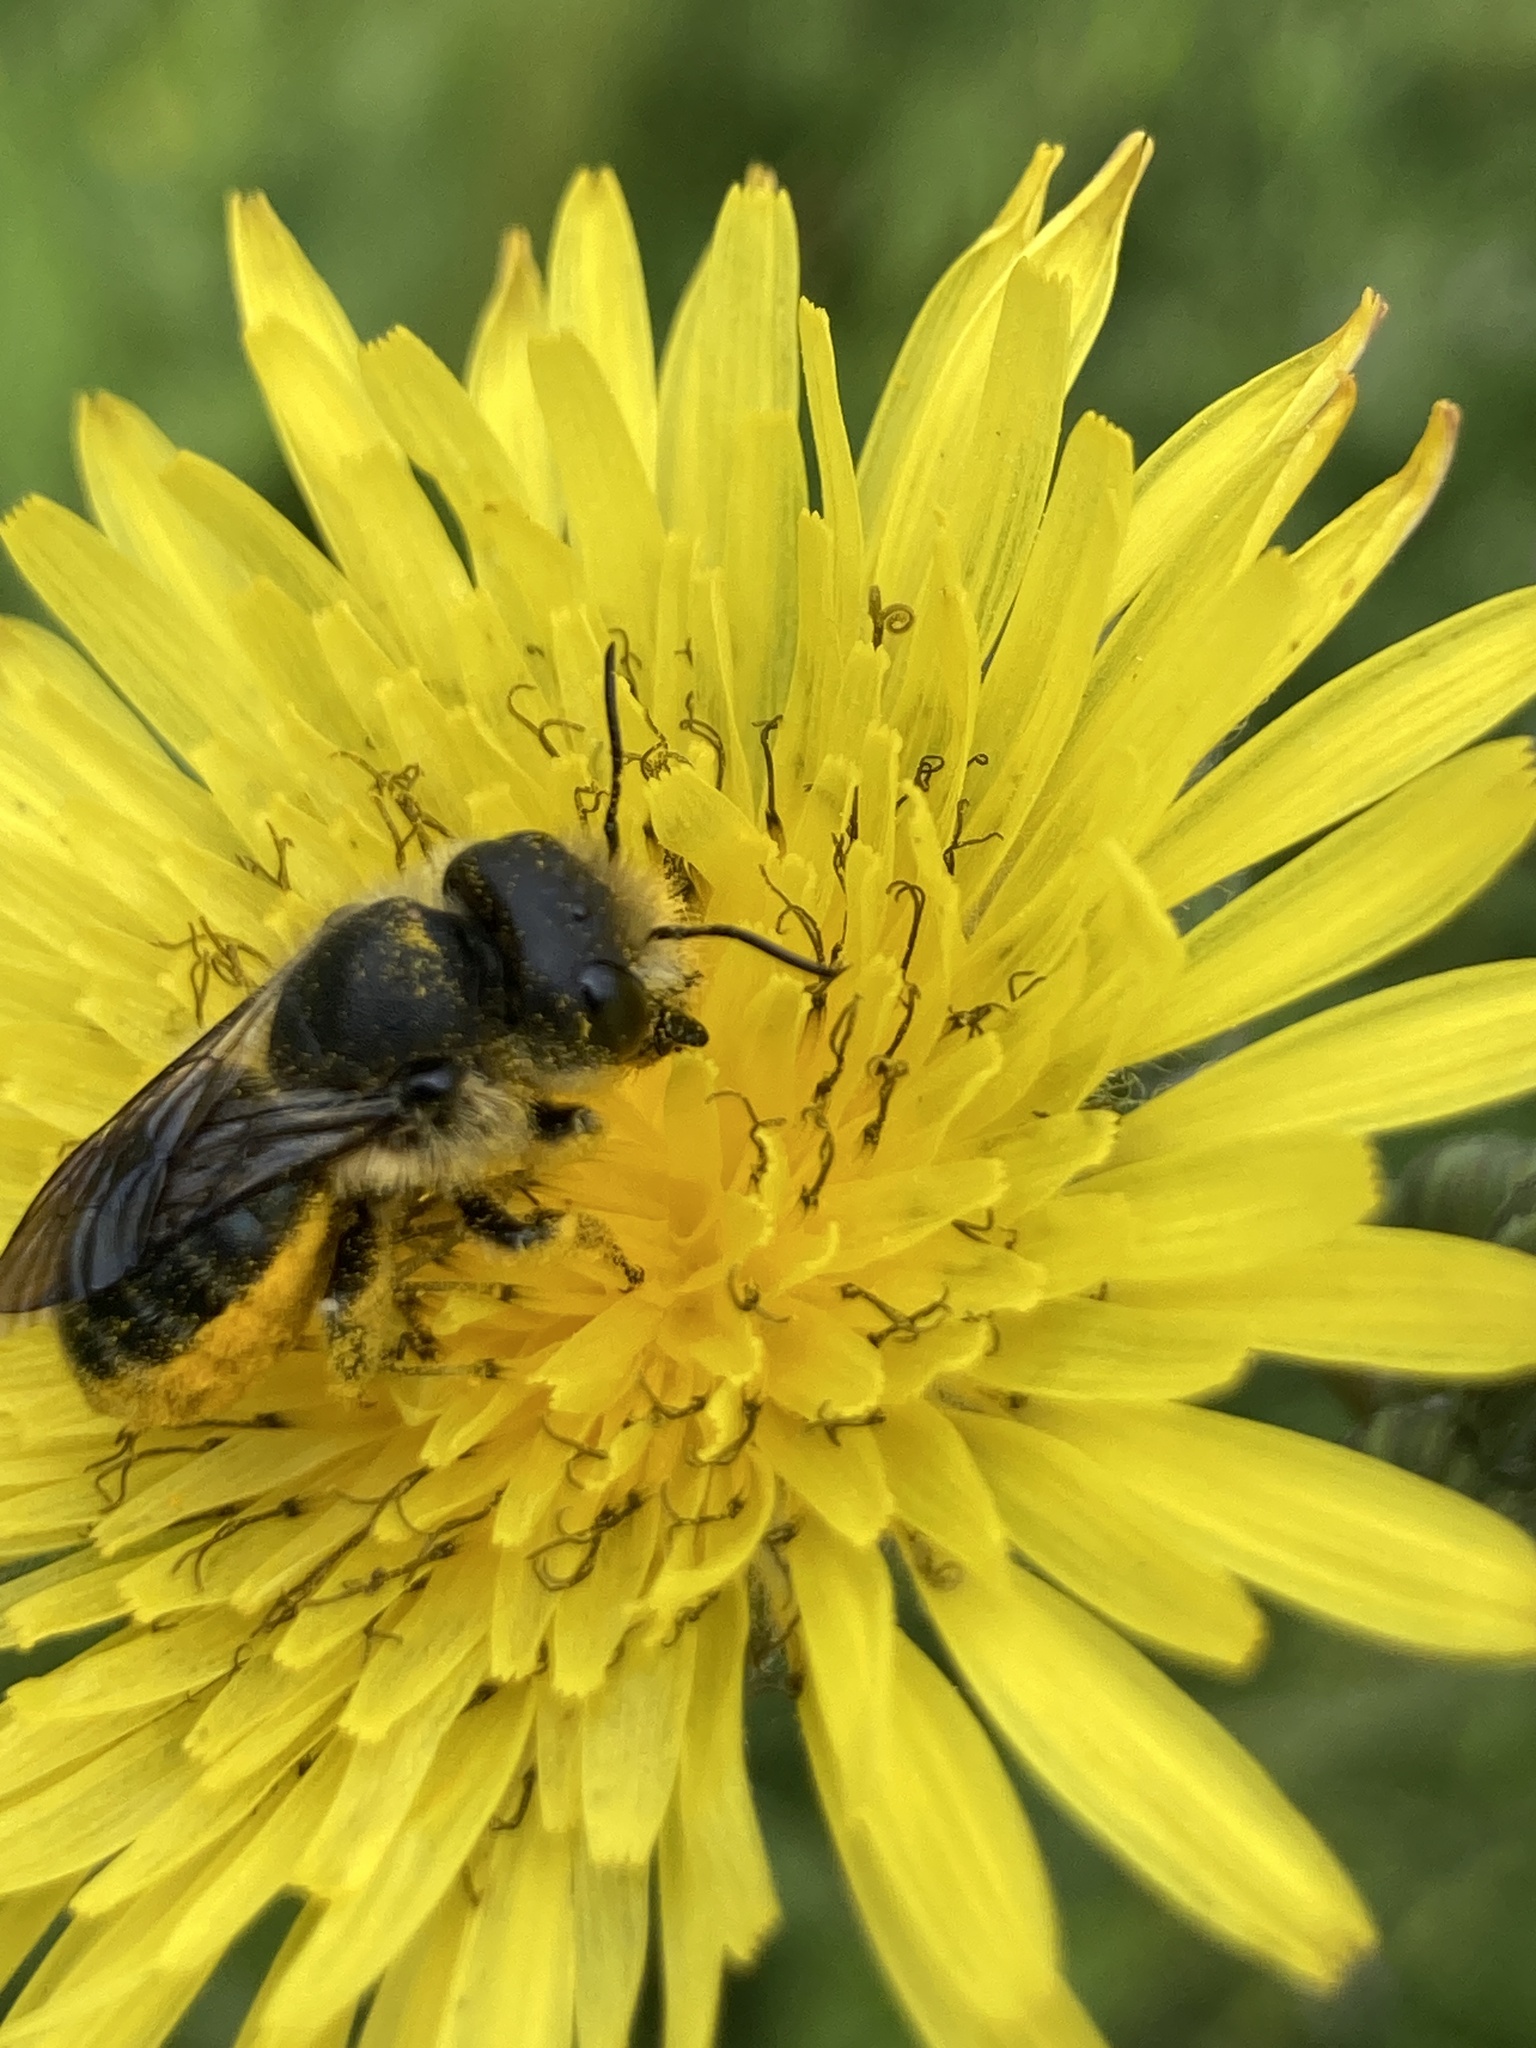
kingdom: Animalia
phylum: Arthropoda
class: Insecta
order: Hymenoptera
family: Megachilidae
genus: Osmia
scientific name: Osmia latreillei
